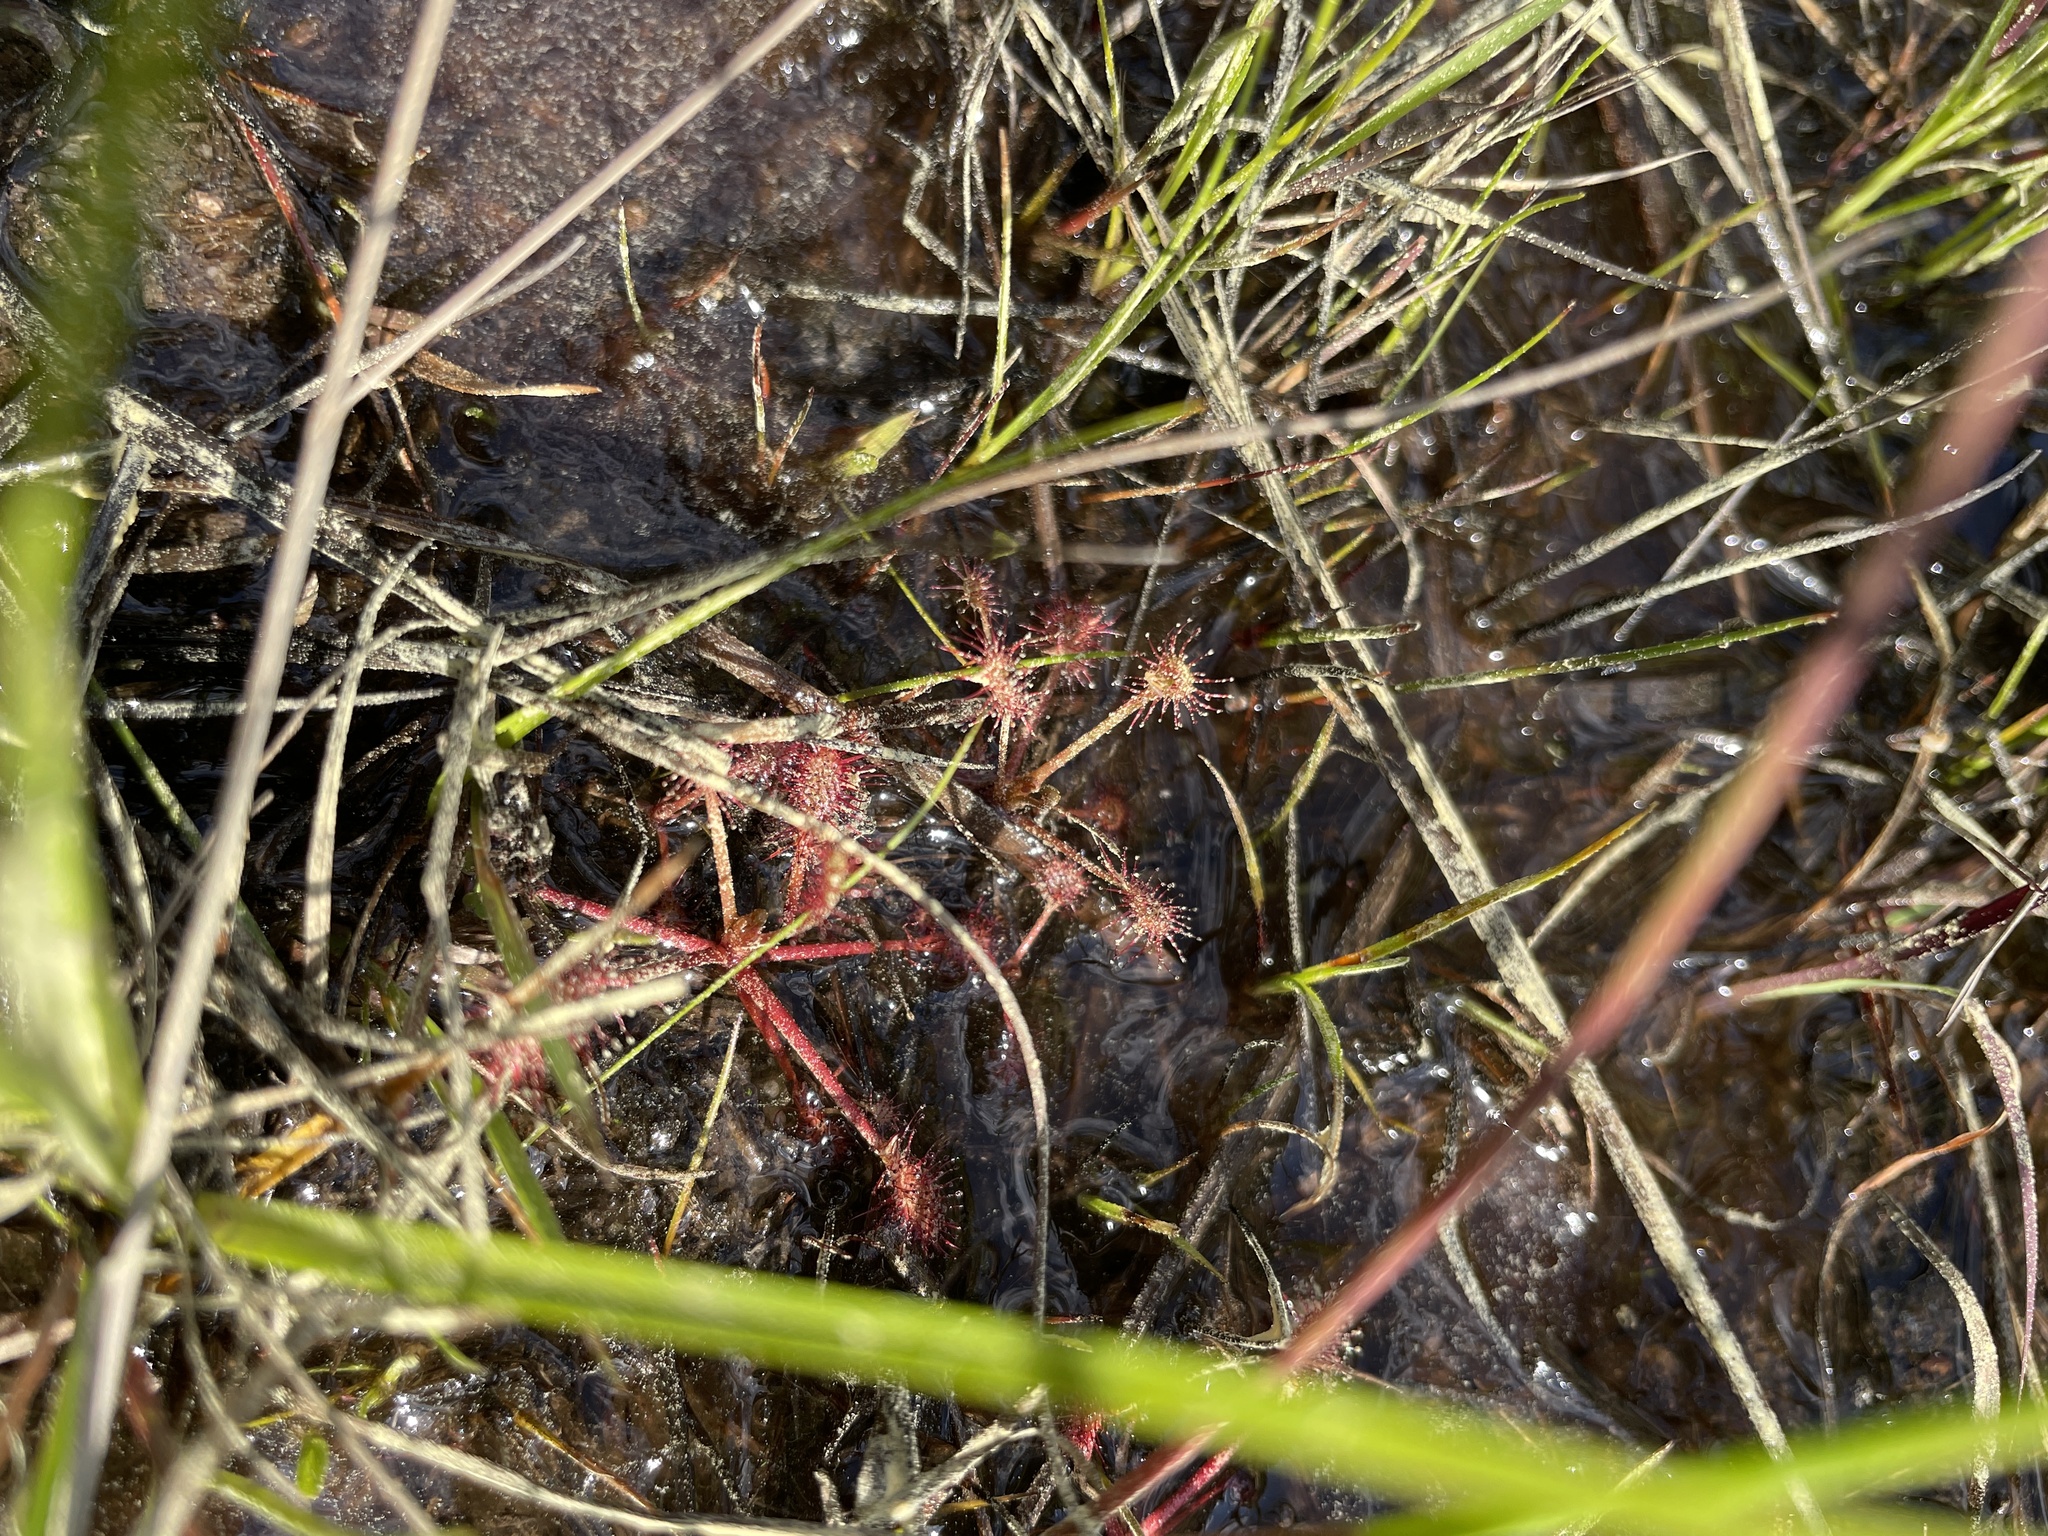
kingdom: Plantae
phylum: Tracheophyta
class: Magnoliopsida
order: Caryophyllales
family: Droseraceae
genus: Drosera
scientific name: Drosera intermedia
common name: Oblong-leaved sundew
